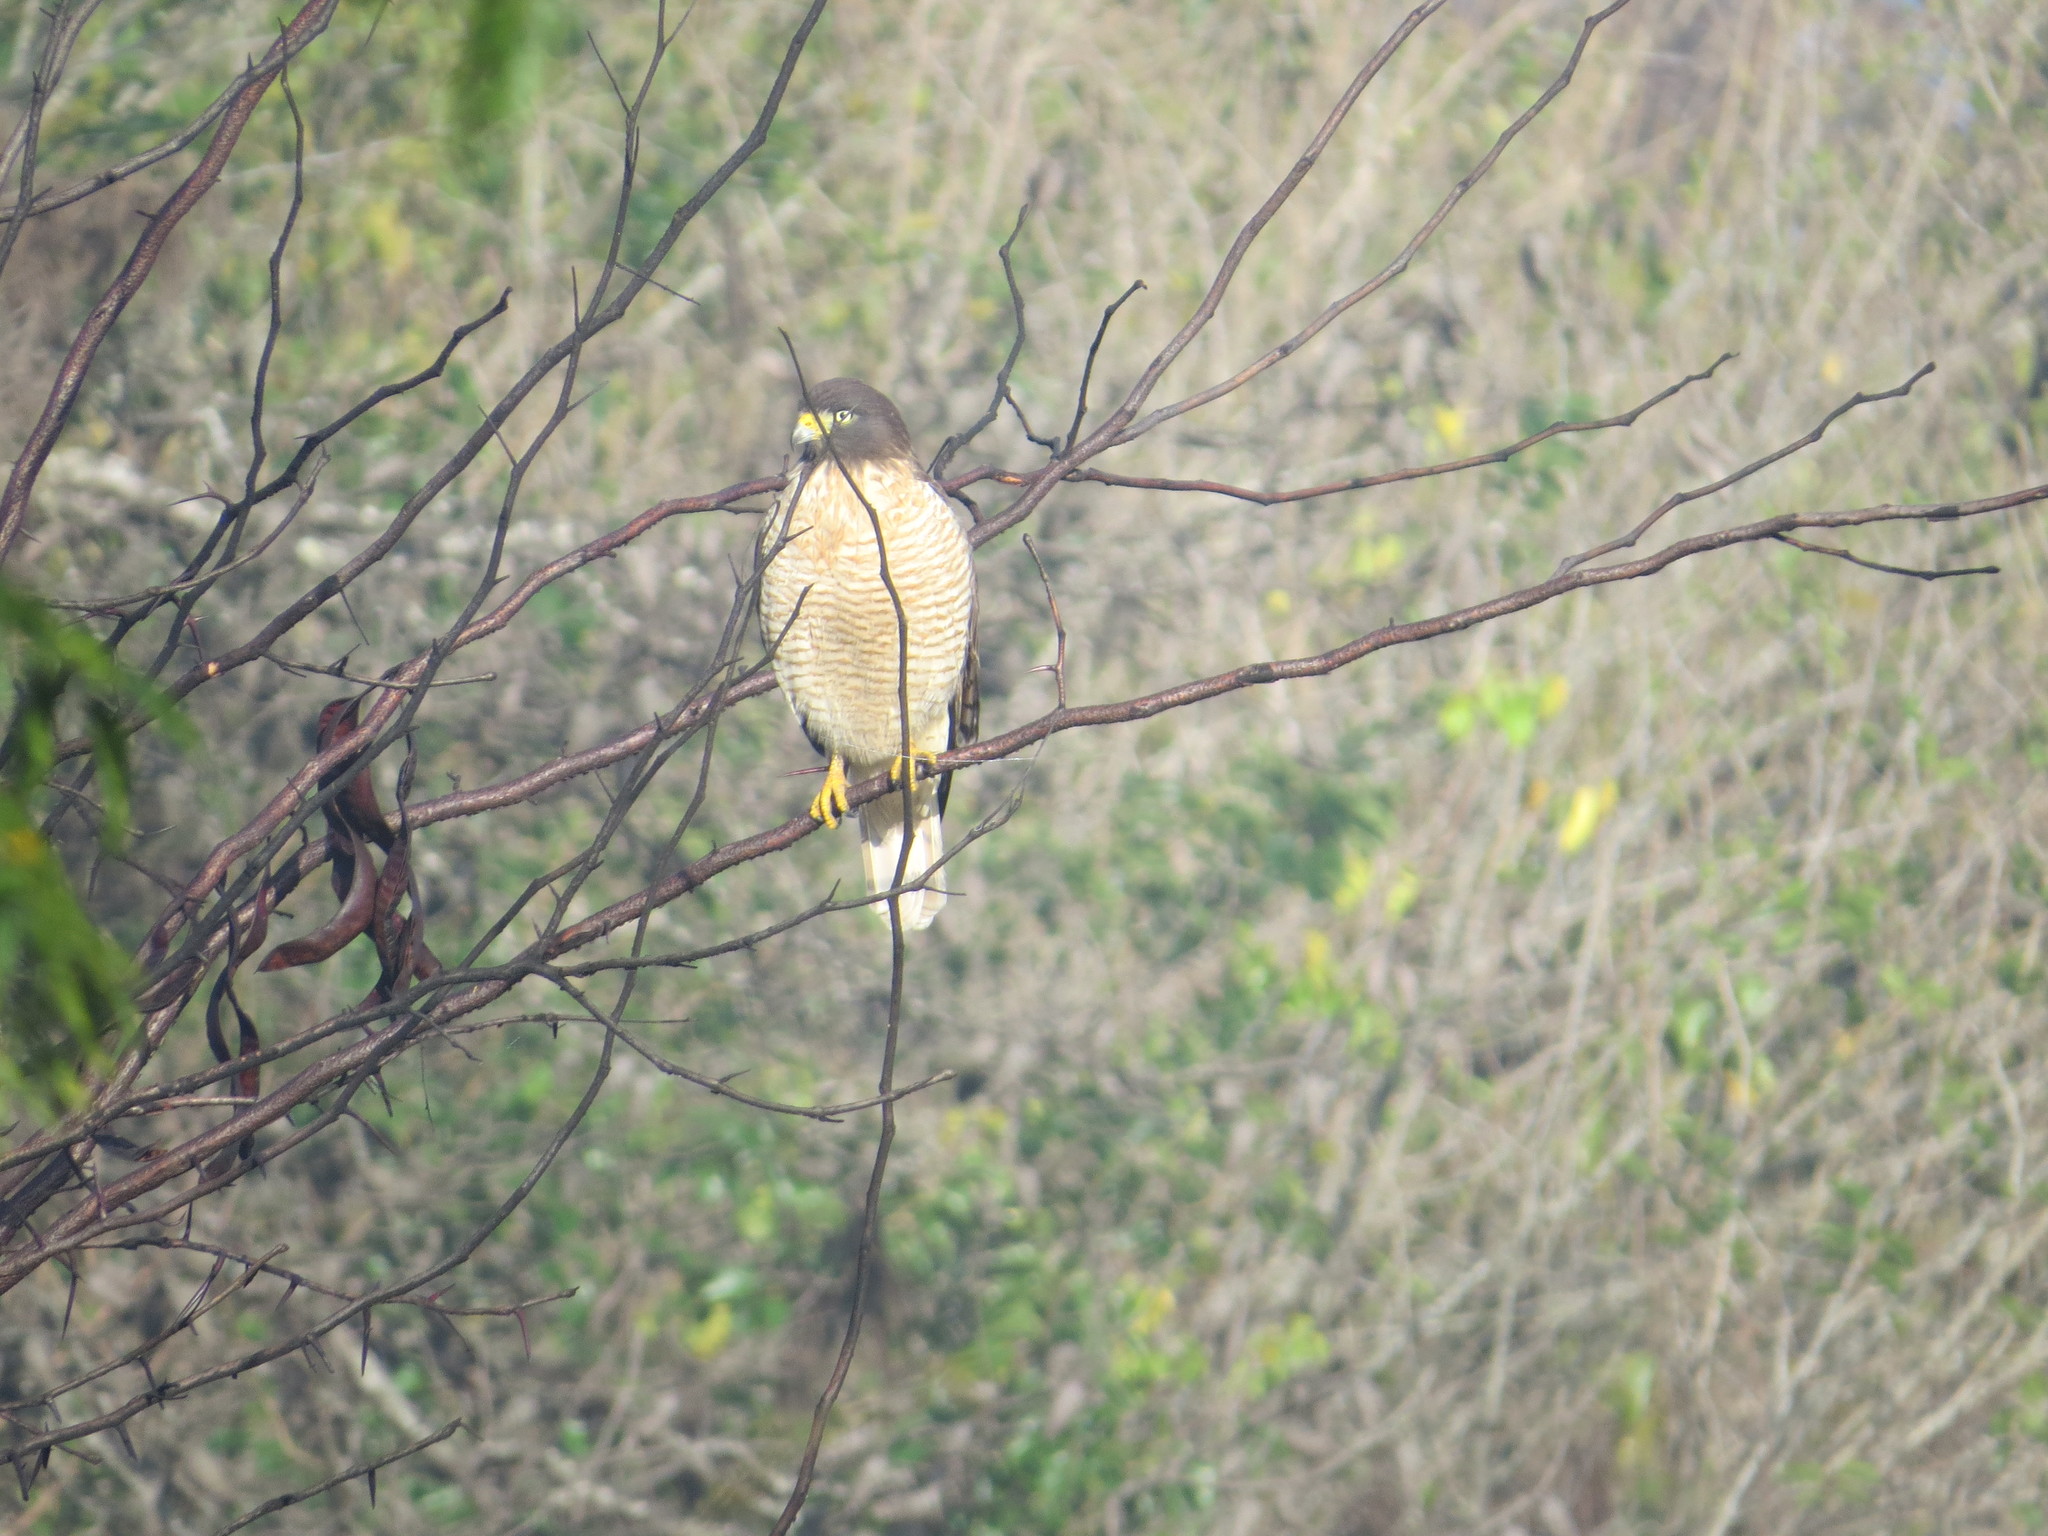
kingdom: Animalia
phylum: Chordata
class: Aves
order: Accipitriformes
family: Accipitridae
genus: Rupornis
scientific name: Rupornis magnirostris
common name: Roadside hawk
